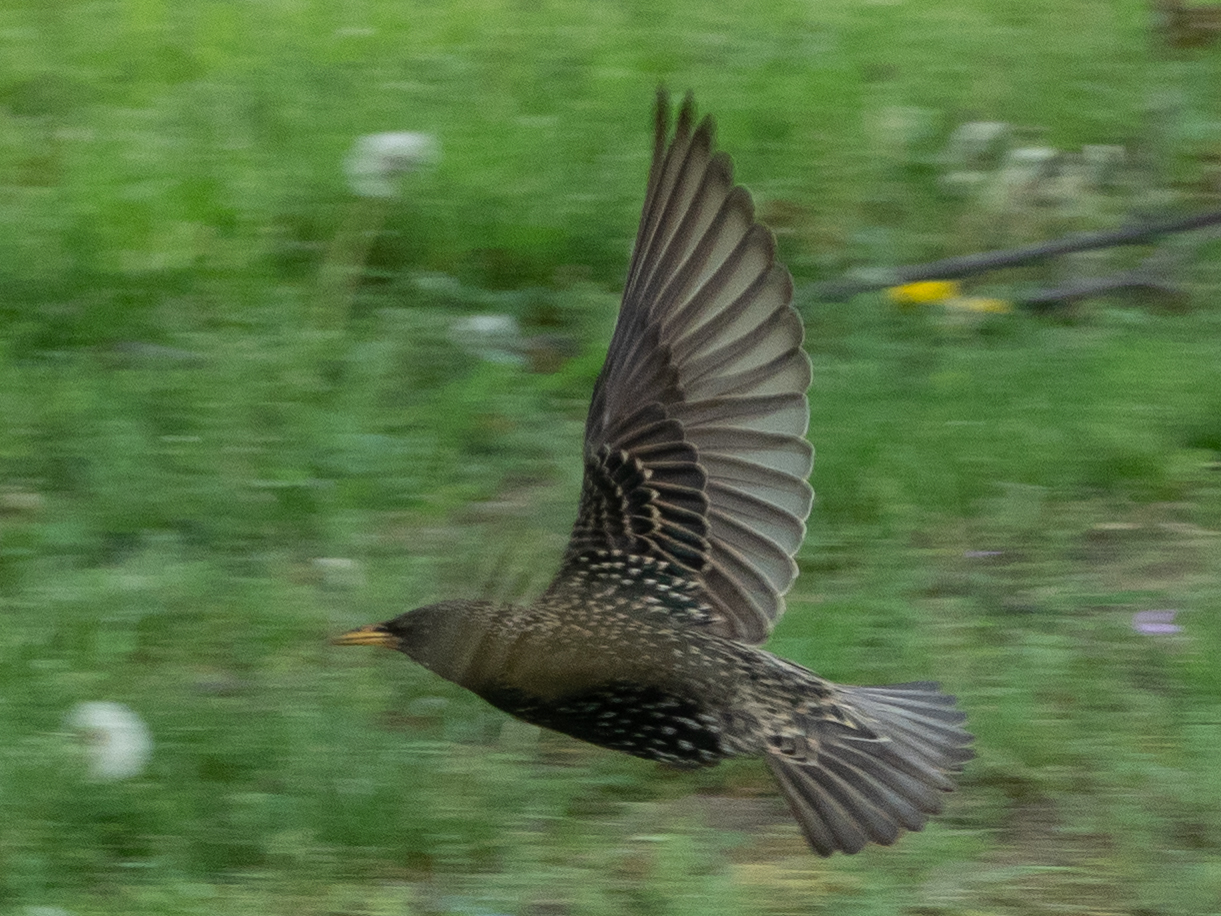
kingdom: Animalia
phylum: Chordata
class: Aves
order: Passeriformes
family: Sturnidae
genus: Sturnus
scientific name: Sturnus vulgaris
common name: Common starling
